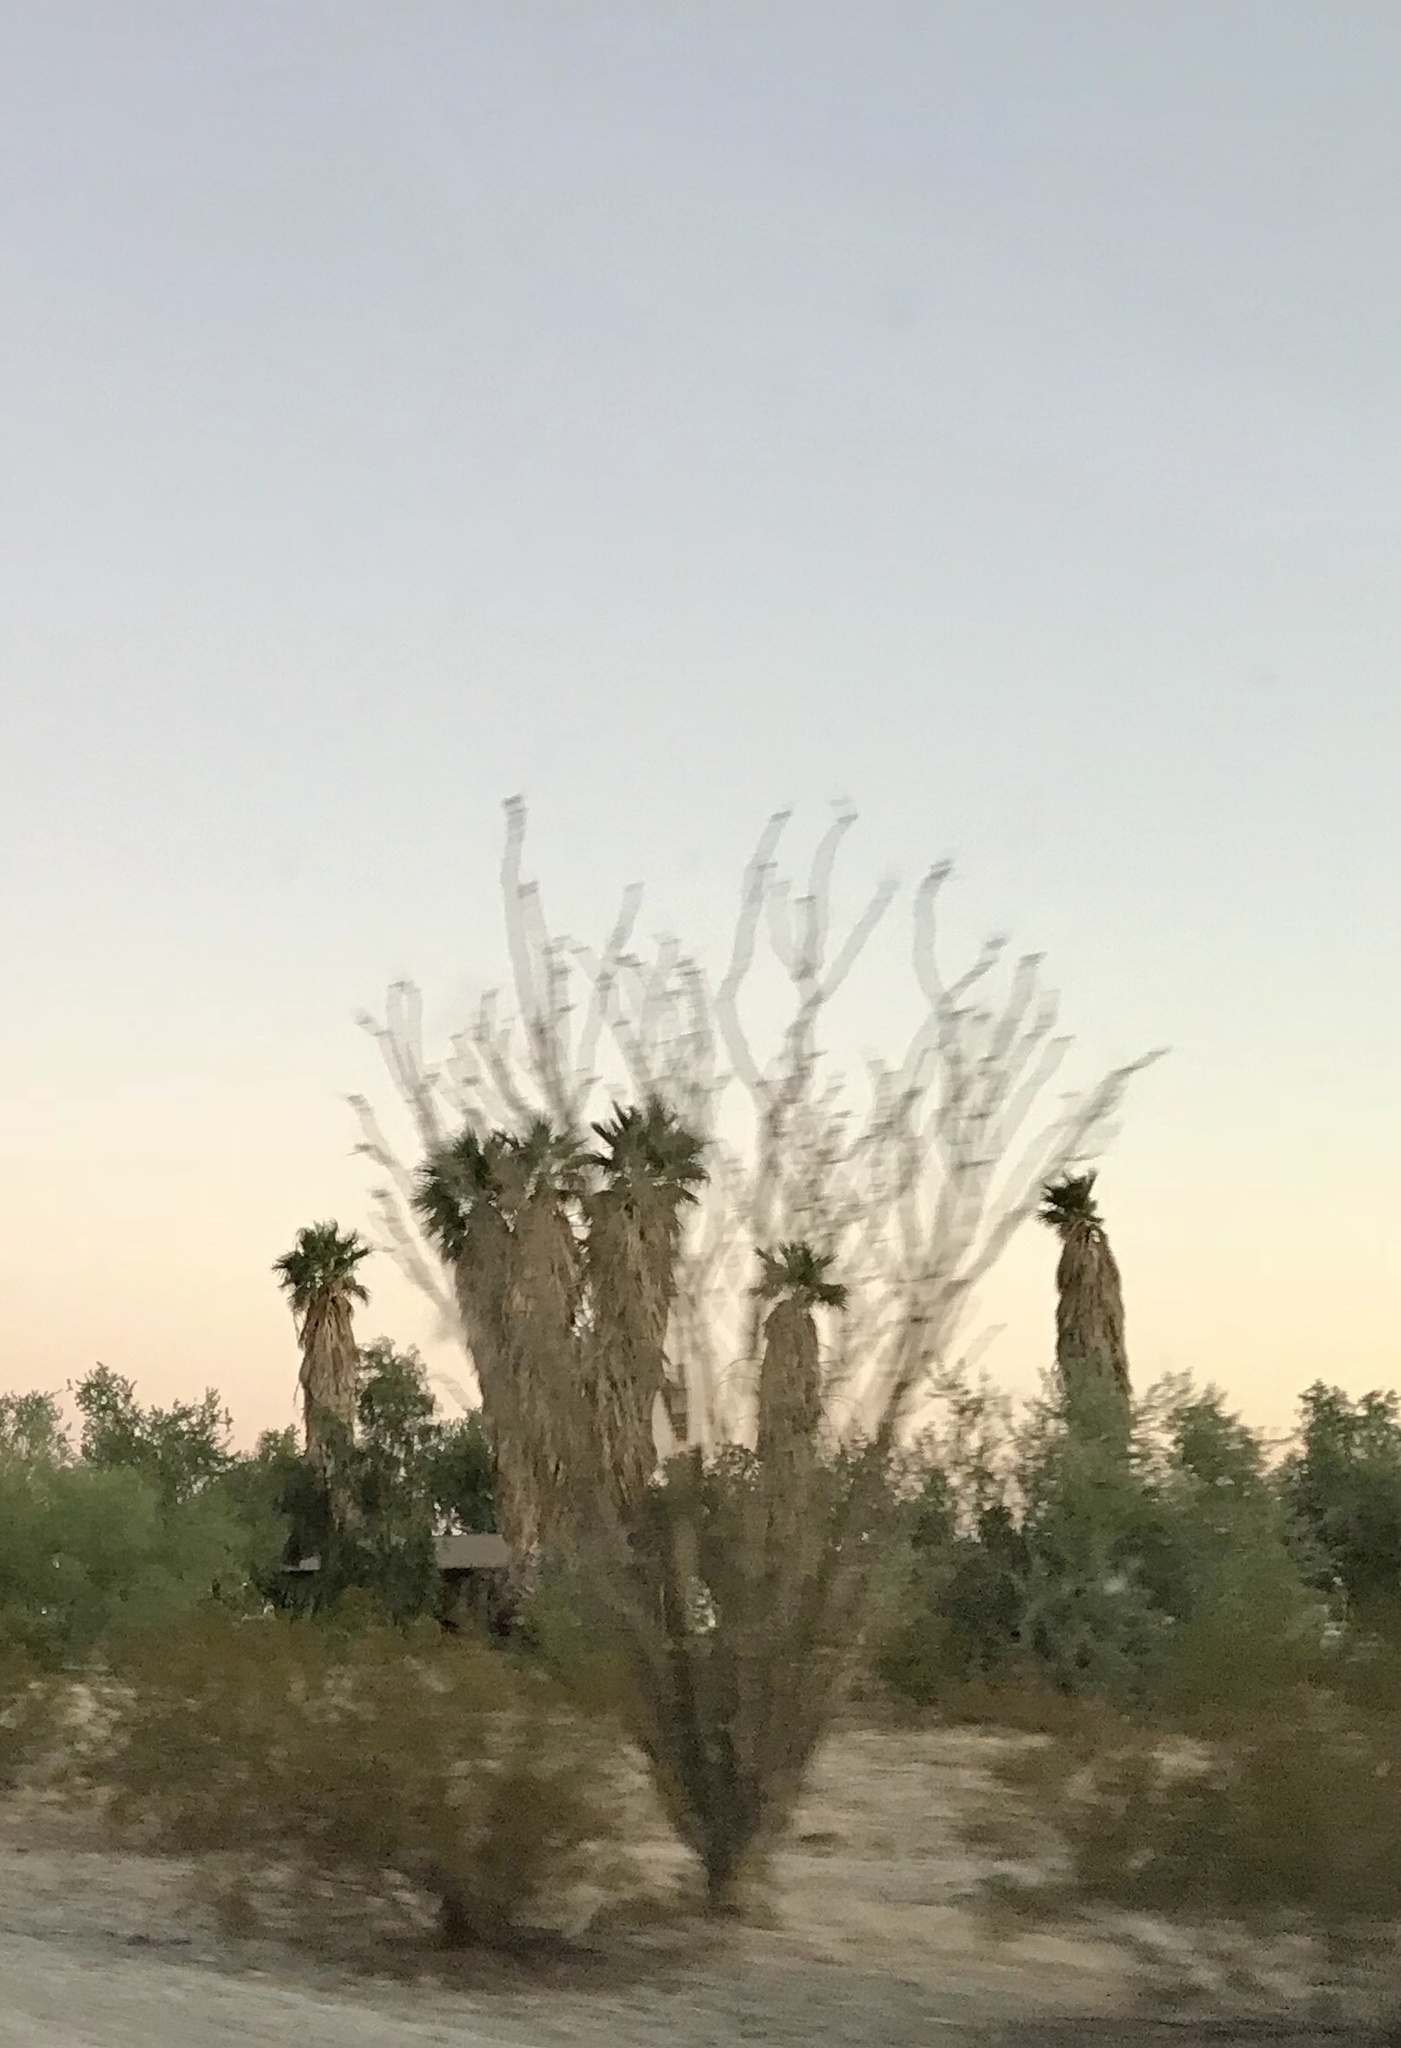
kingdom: Plantae
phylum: Tracheophyta
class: Magnoliopsida
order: Ericales
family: Fouquieriaceae
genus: Fouquieria
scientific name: Fouquieria splendens
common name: Vine-cactus
